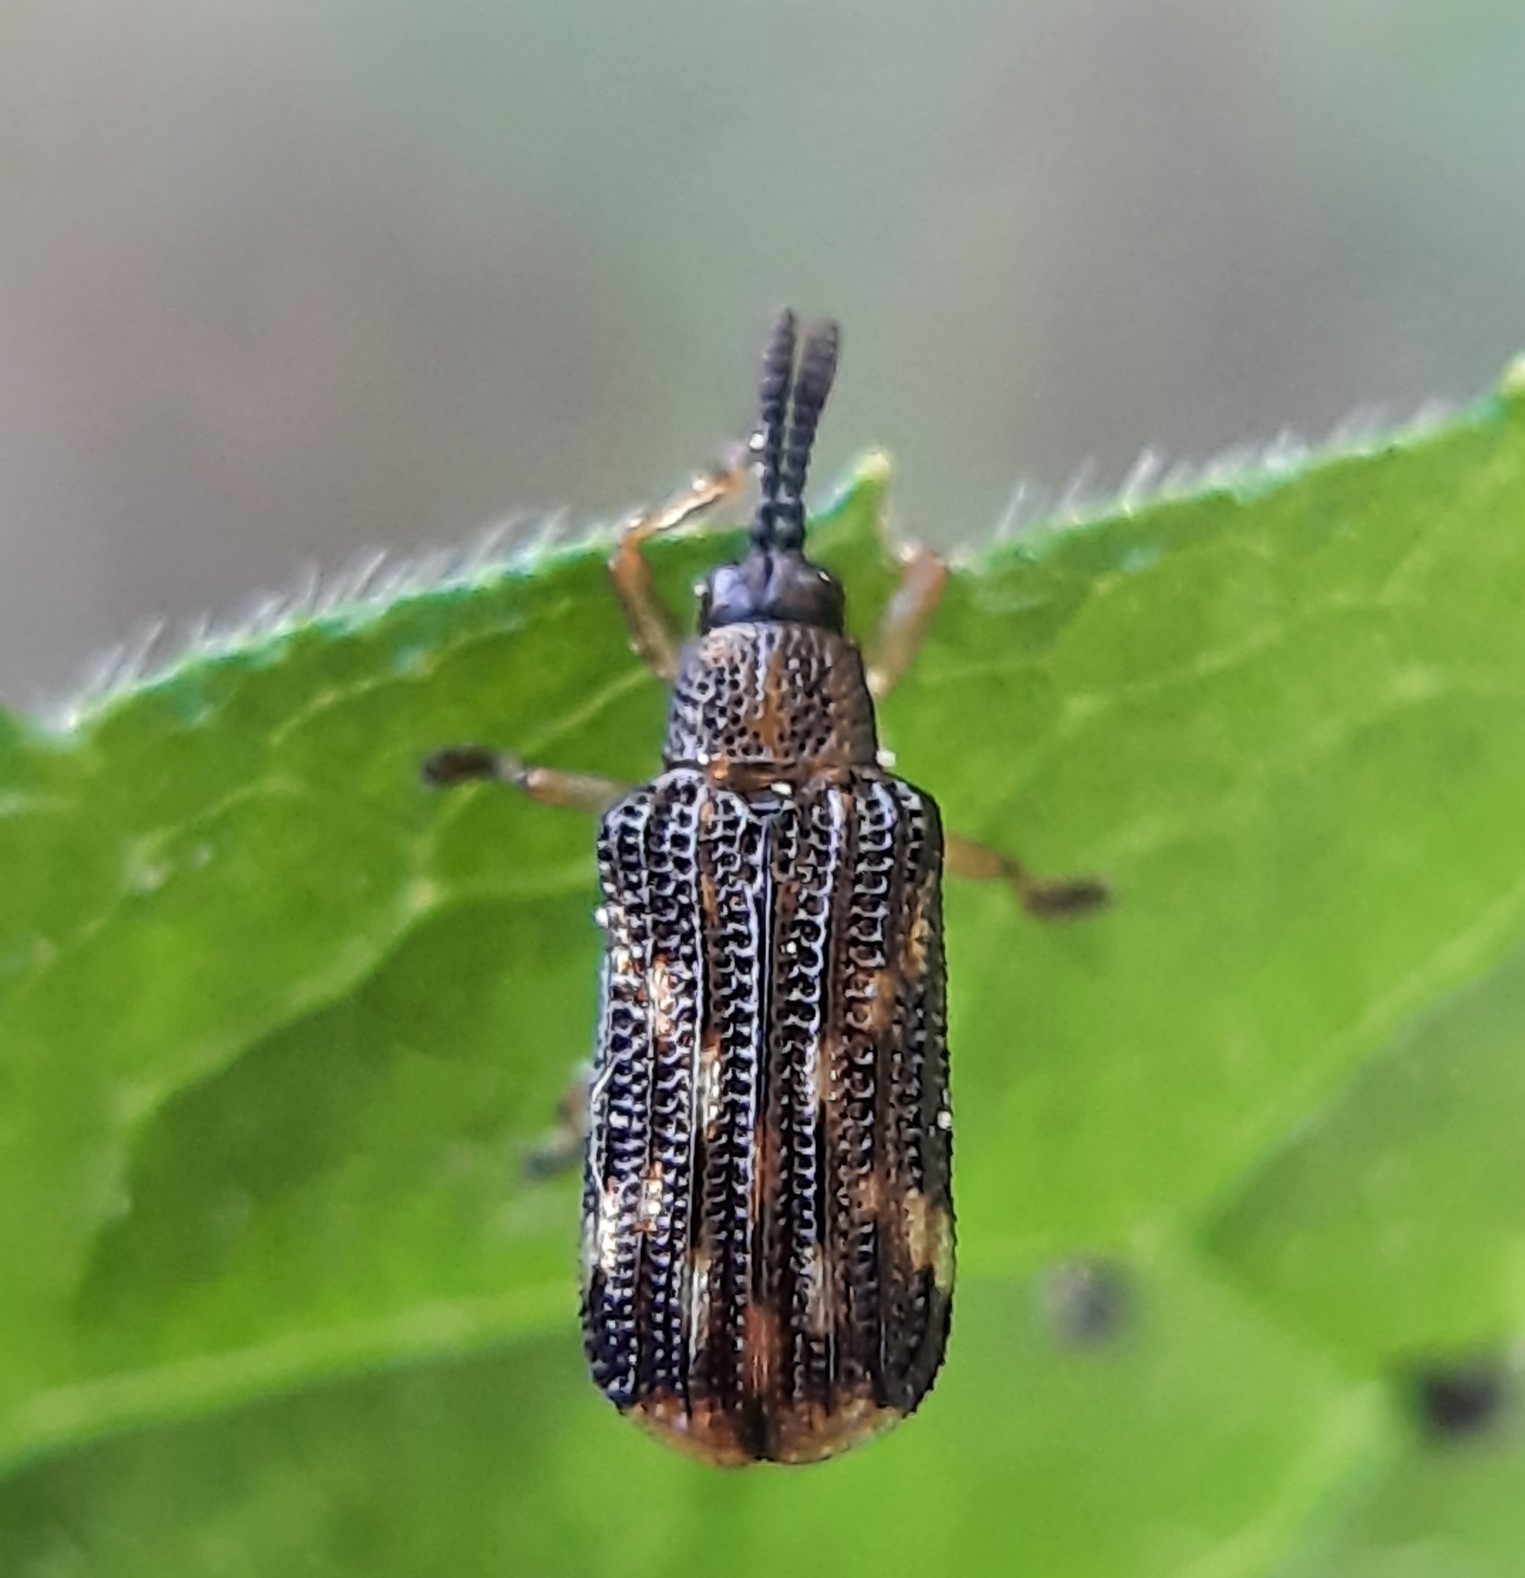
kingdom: Animalia
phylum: Arthropoda
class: Insecta
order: Coleoptera
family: Chrysomelidae
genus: Sumitrosis
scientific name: Sumitrosis inaequalis
